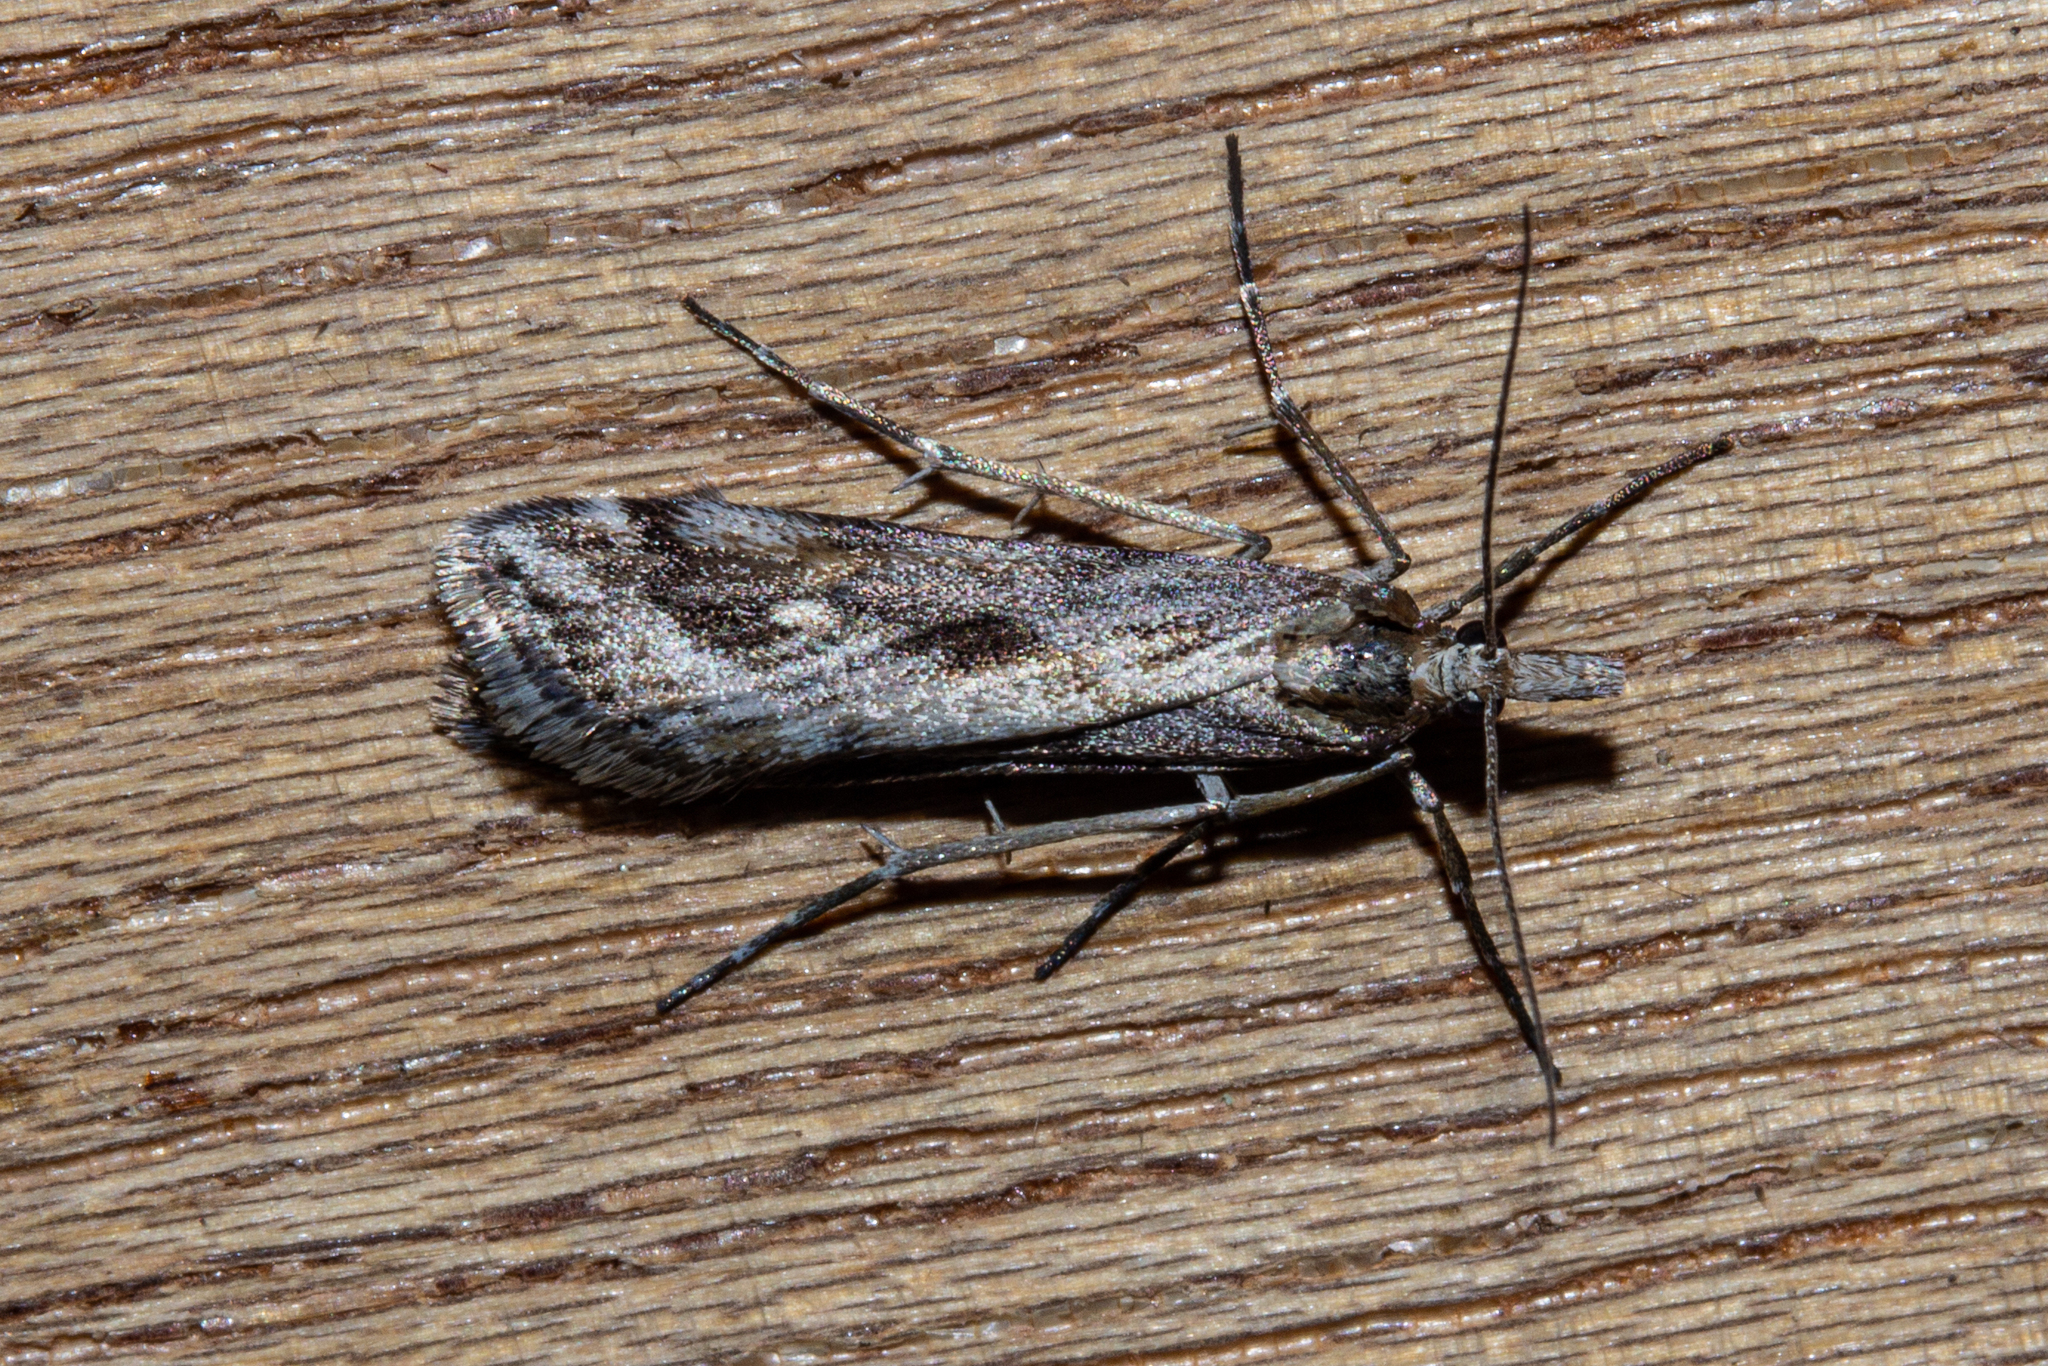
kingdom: Animalia
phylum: Arthropoda
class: Insecta
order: Lepidoptera
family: Crambidae
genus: Scoparia
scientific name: Scoparia exilis
